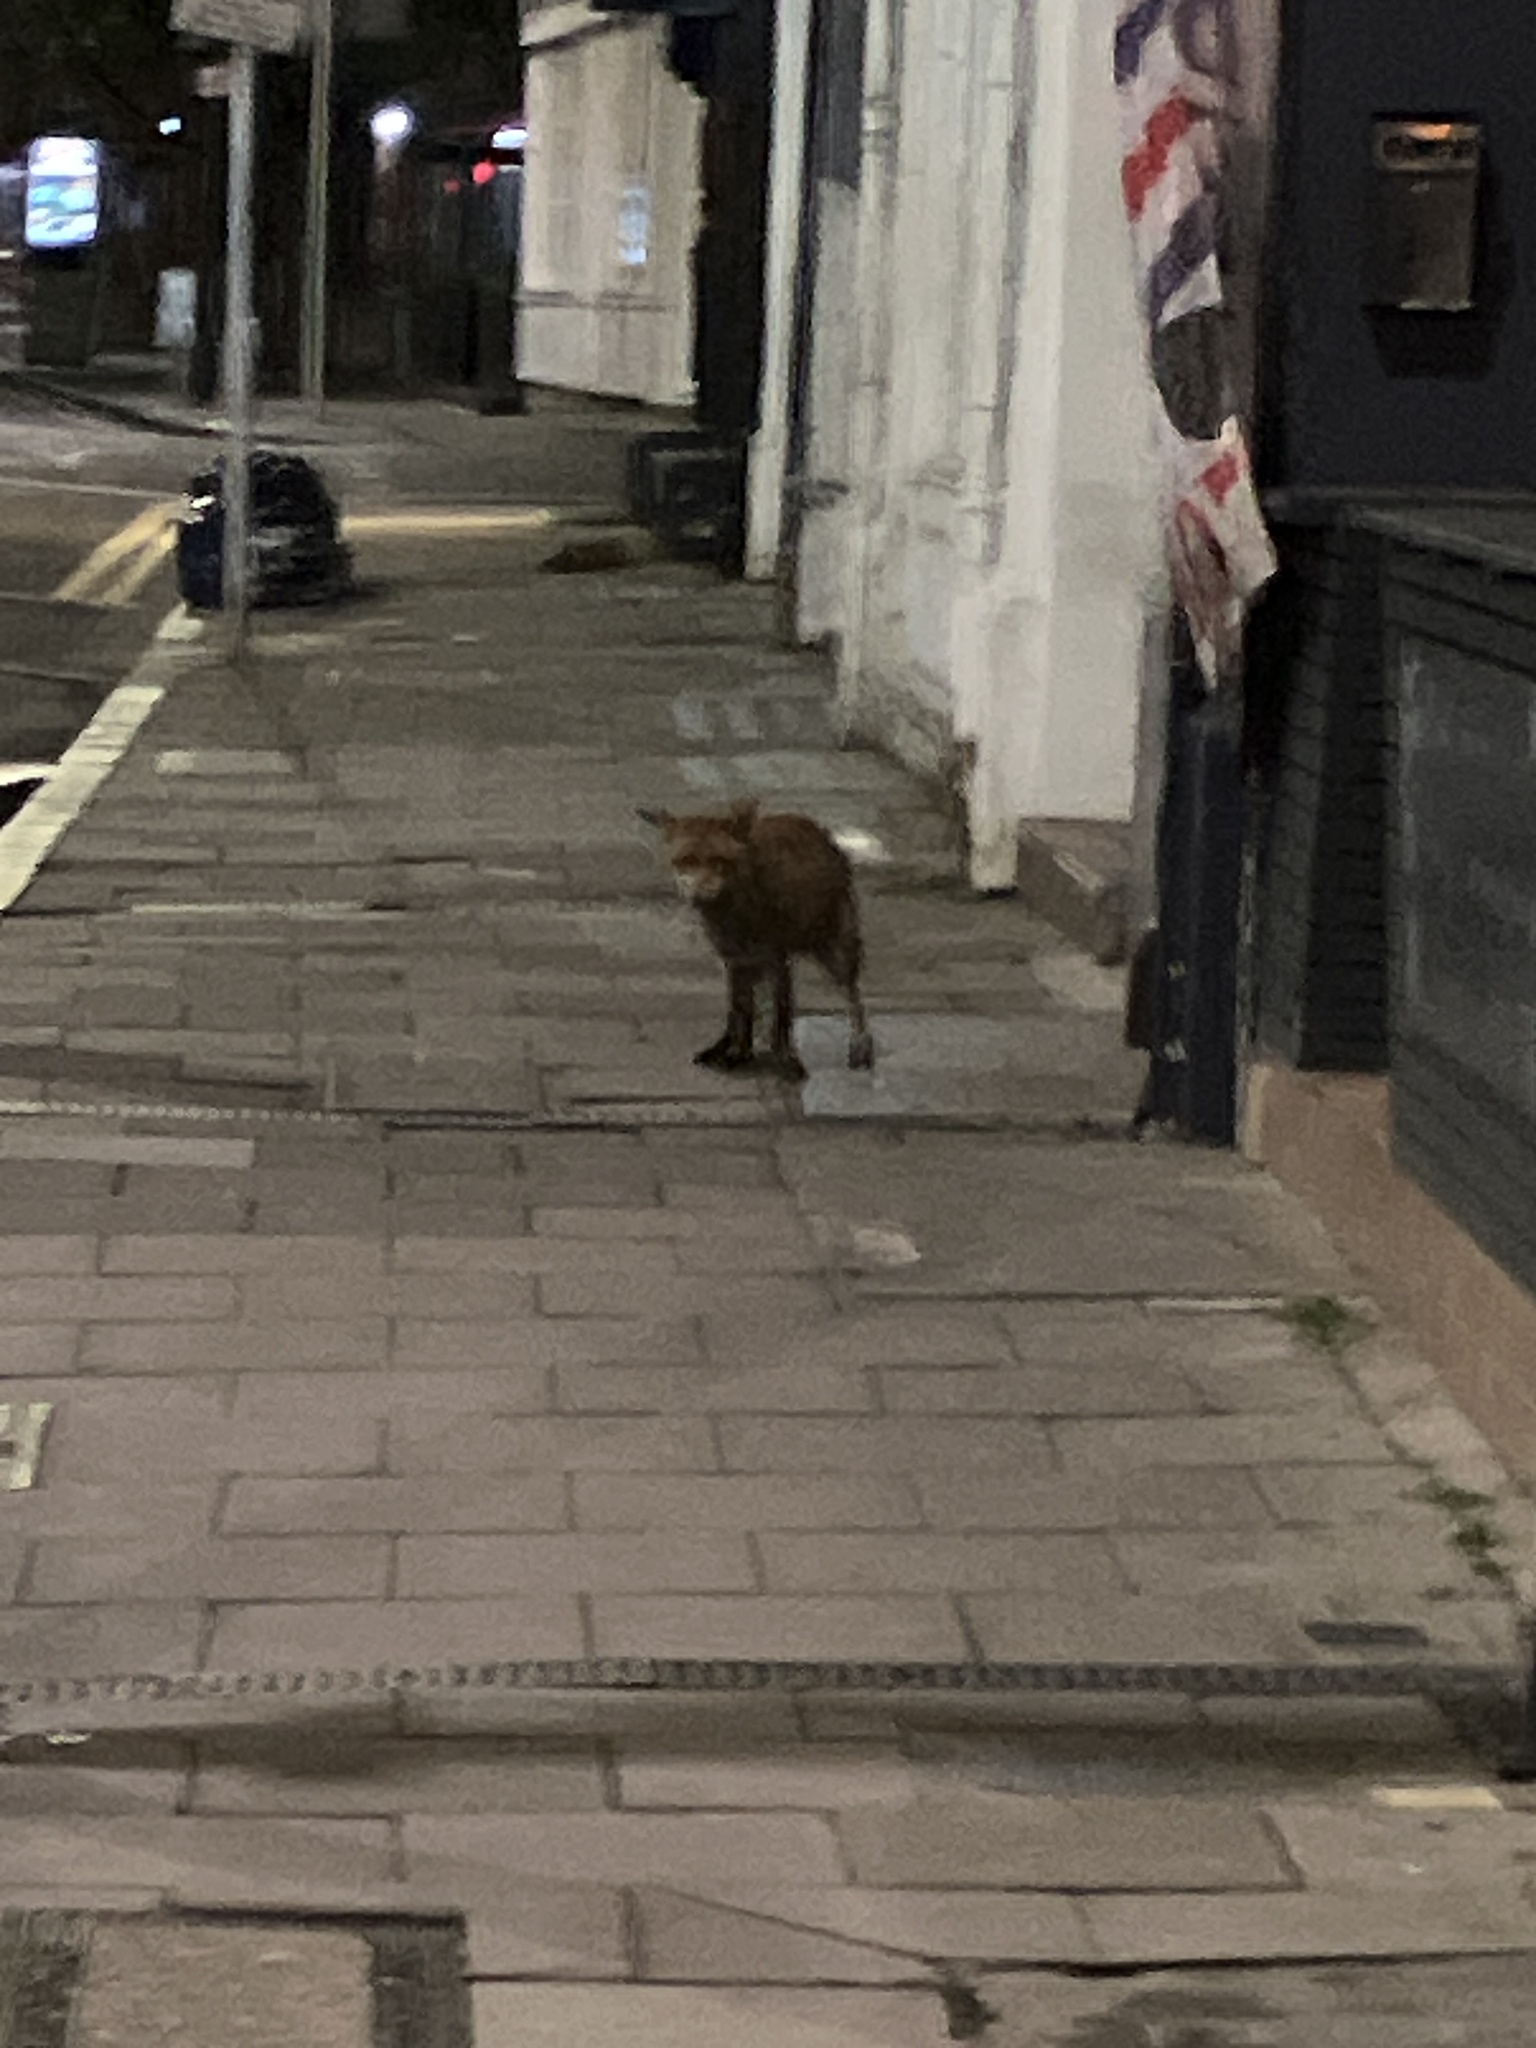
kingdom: Animalia
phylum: Chordata
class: Mammalia
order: Carnivora
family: Canidae
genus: Vulpes
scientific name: Vulpes vulpes
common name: Red fox
